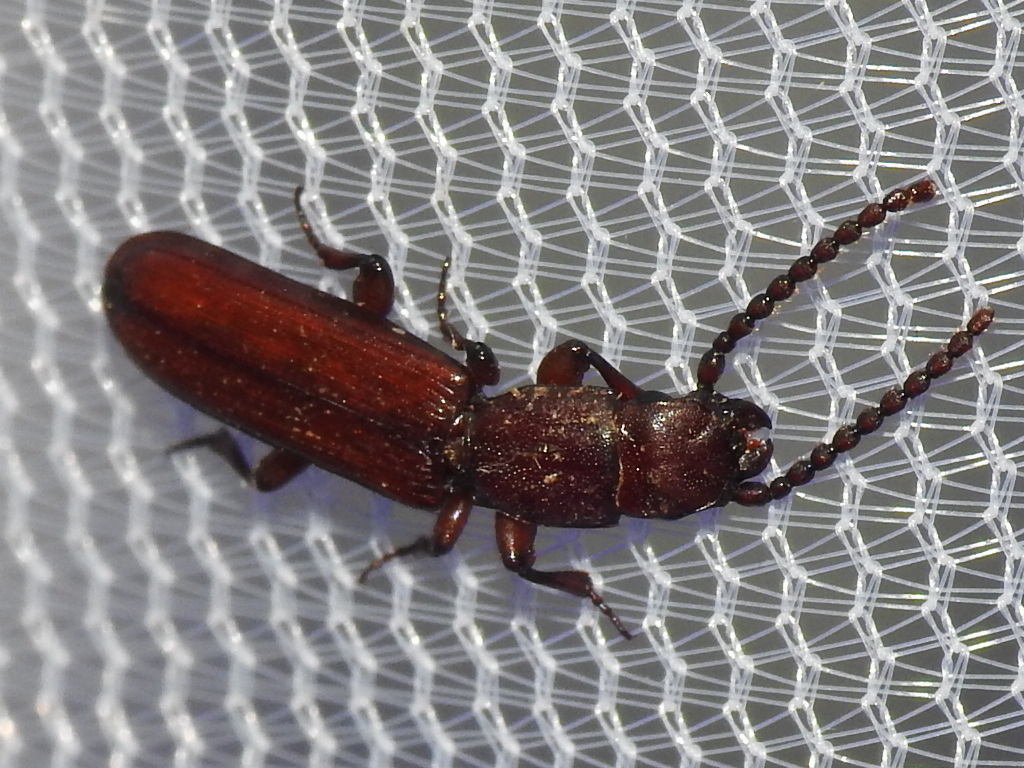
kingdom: Animalia
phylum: Arthropoda
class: Insecta
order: Coleoptera
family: Passandridae
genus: Catogenus
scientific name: Catogenus rufus
